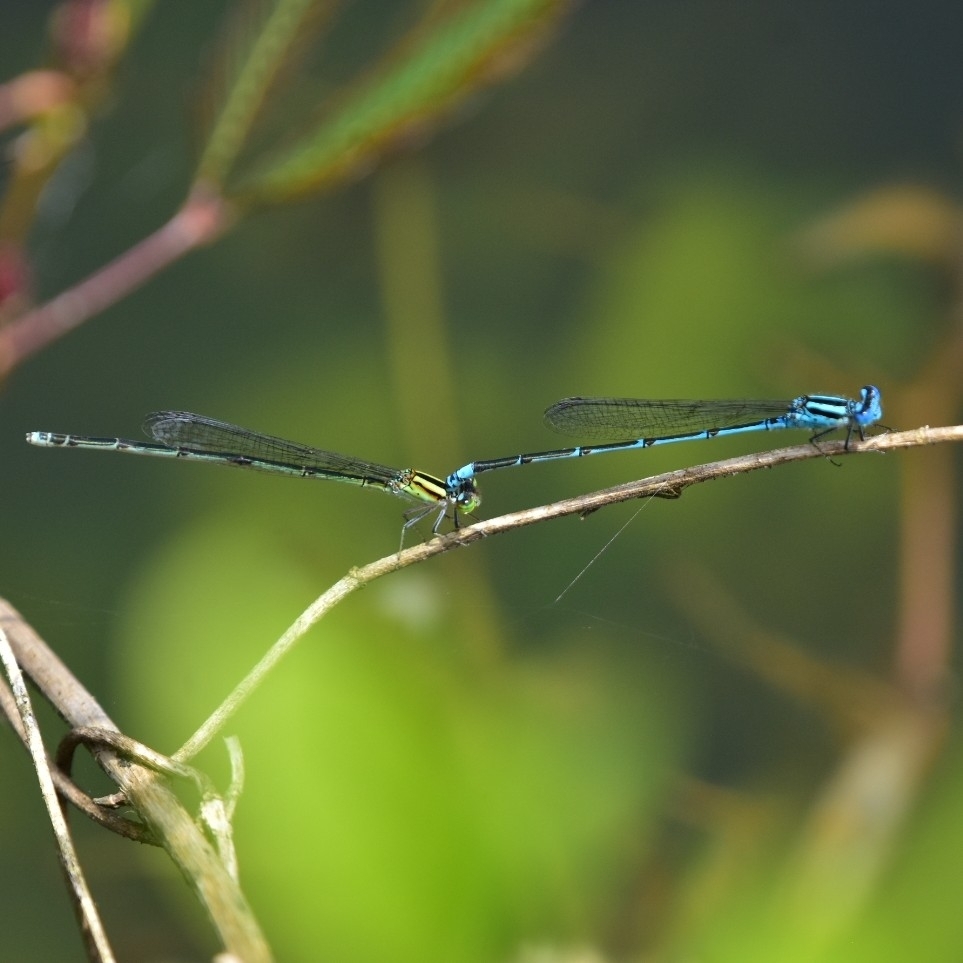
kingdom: Animalia
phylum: Arthropoda
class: Insecta
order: Odonata
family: Coenagrionidae
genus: Pseudagrion
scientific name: Pseudagrion australasiae
